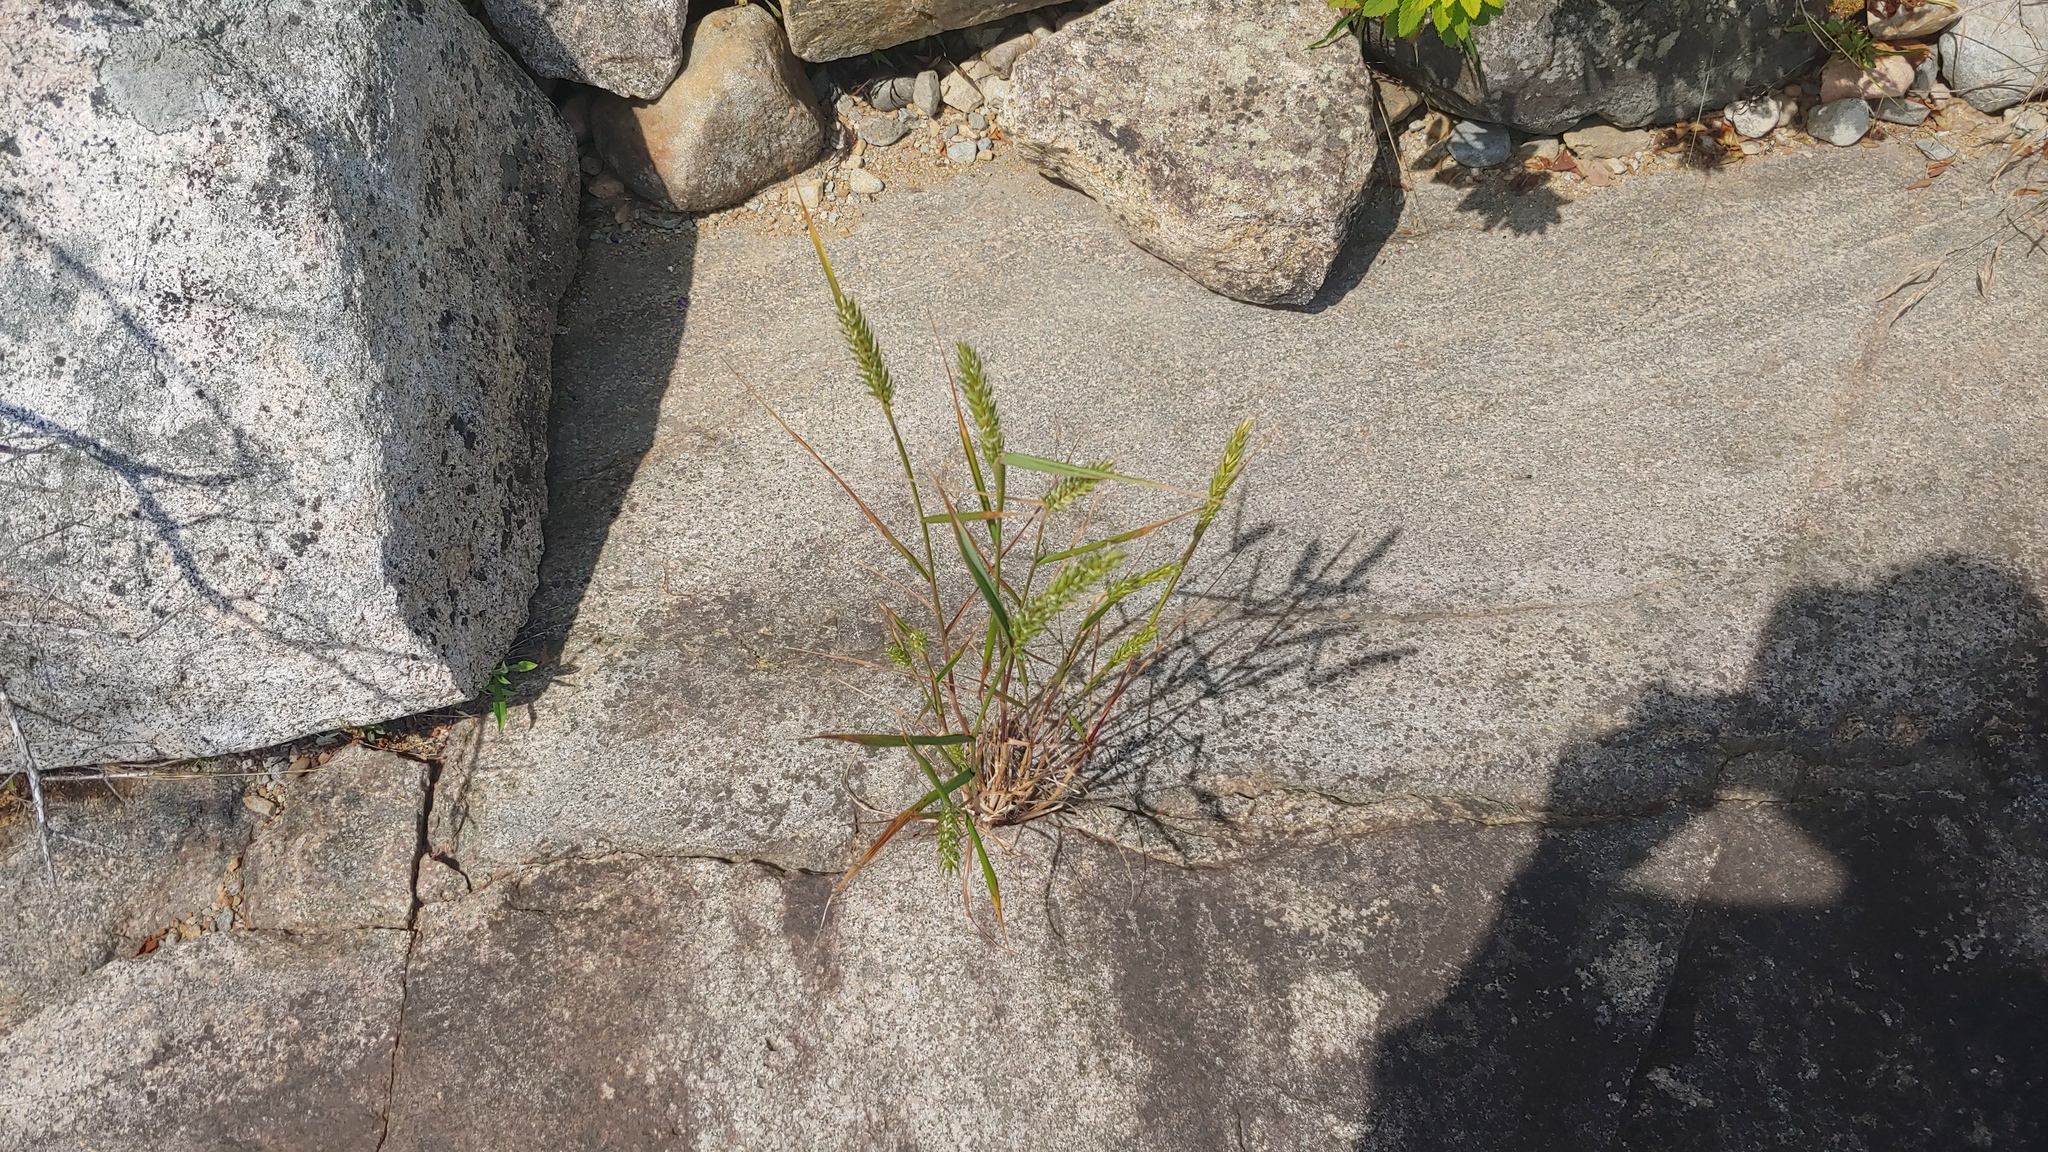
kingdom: Plantae
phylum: Tracheophyta
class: Liliopsida
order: Poales
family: Poaceae
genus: Elymus
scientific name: Elymus virginicus
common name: Common eastern wildrye
